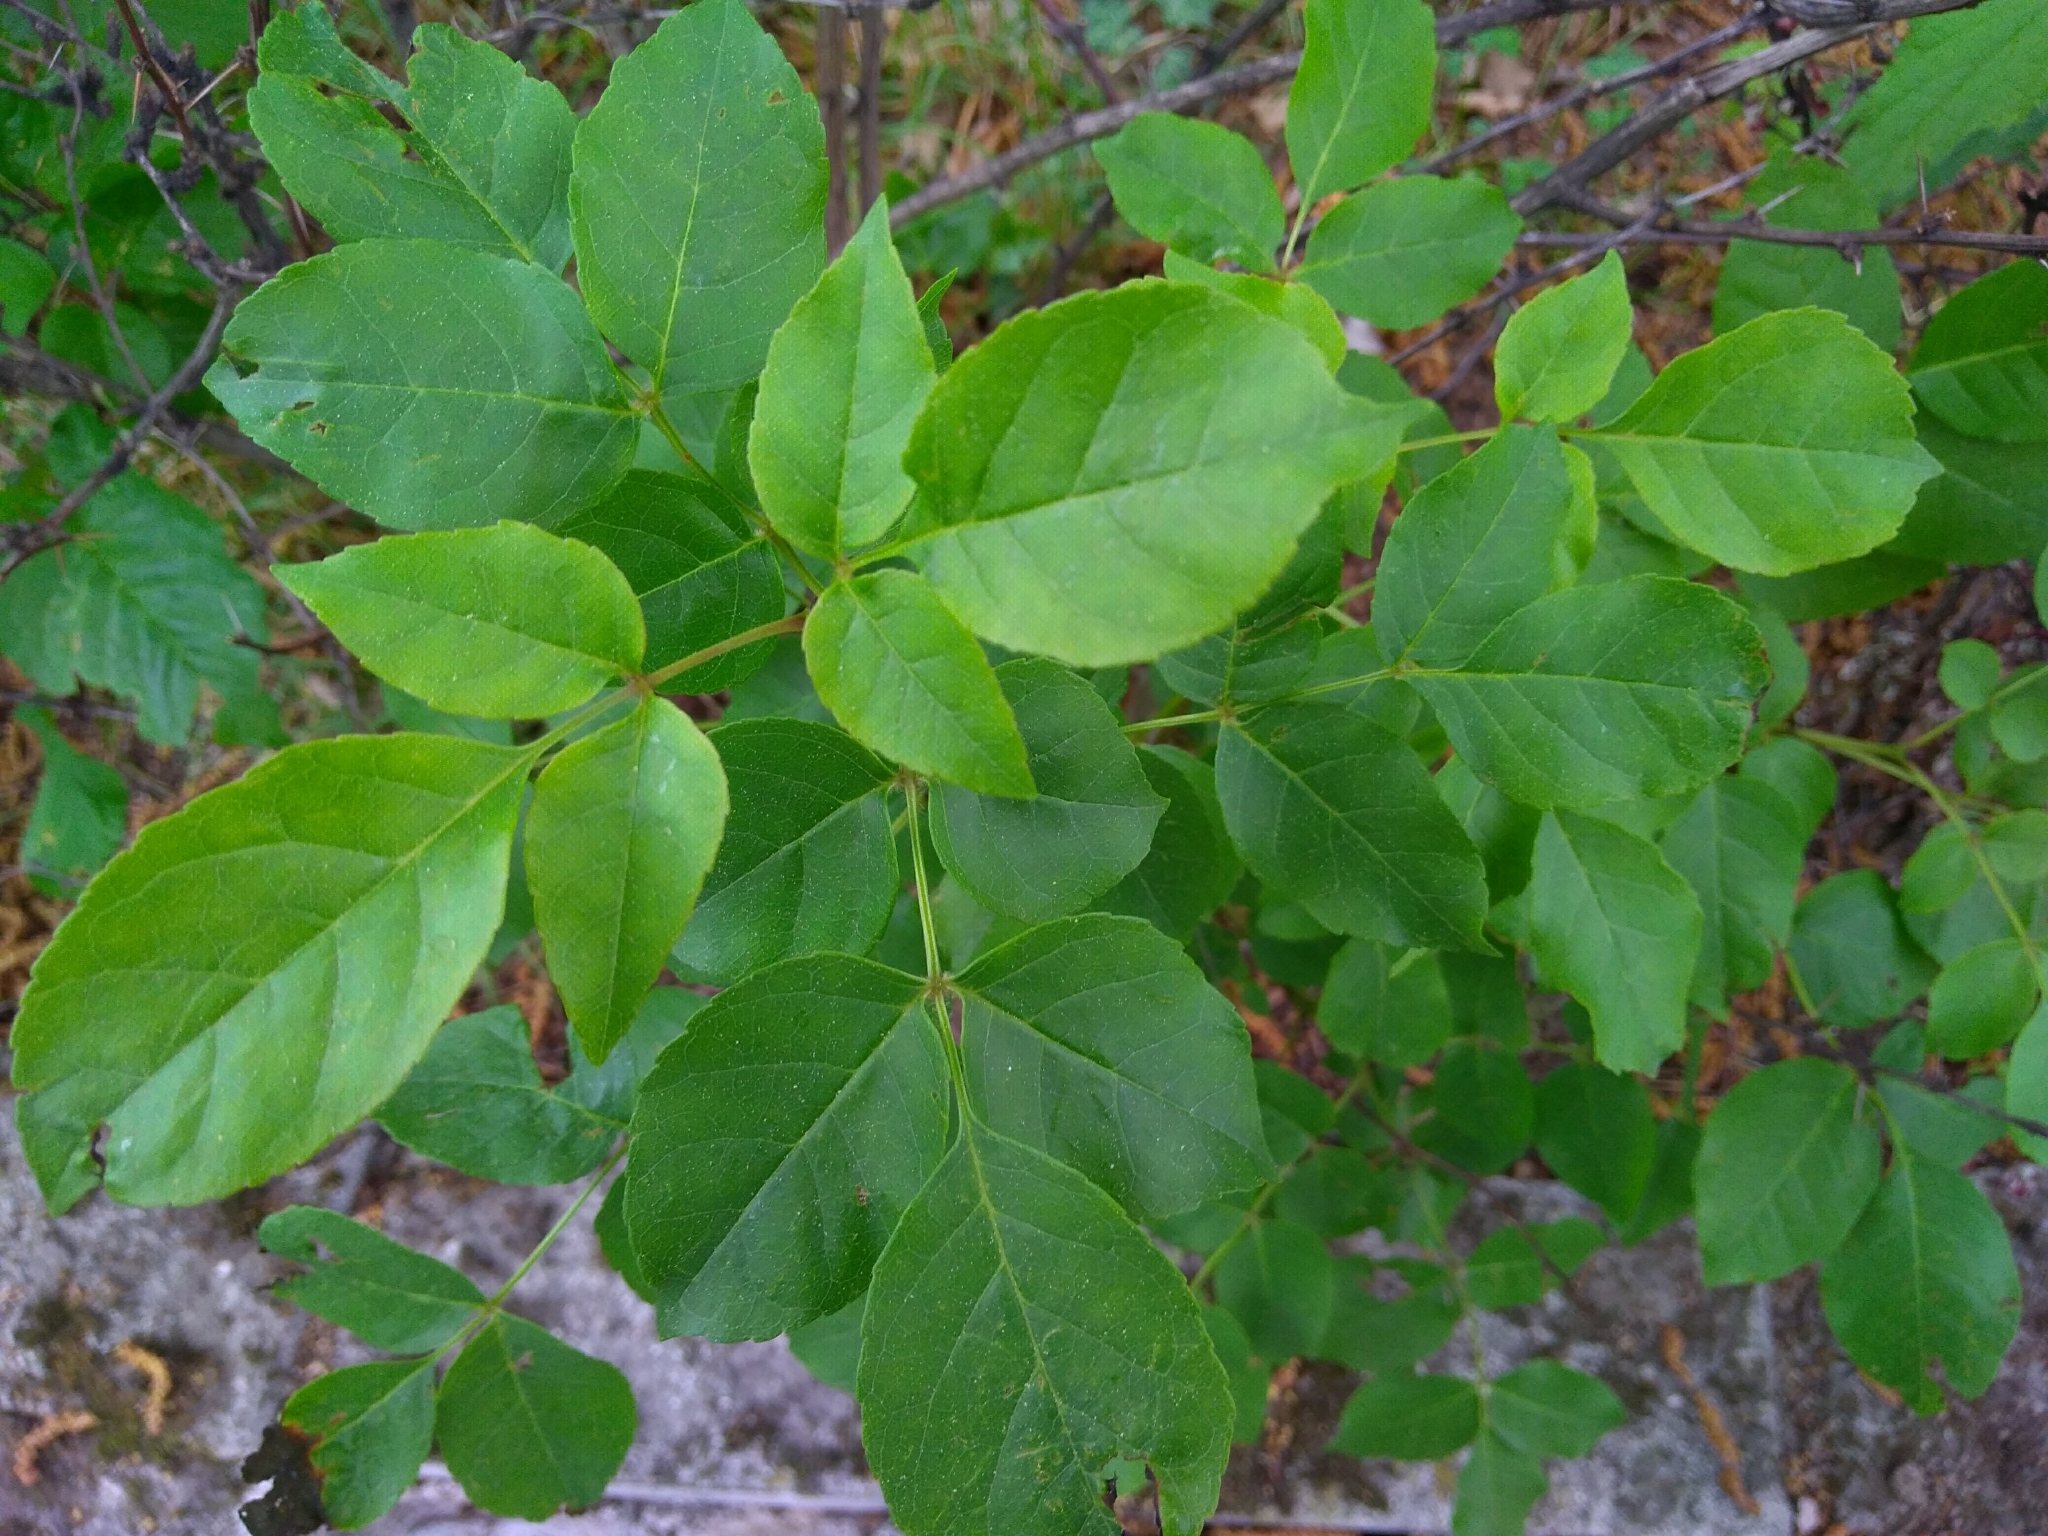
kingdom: Plantae
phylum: Tracheophyta
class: Magnoliopsida
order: Lamiales
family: Oleaceae
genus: Fraxinus
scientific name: Fraxinus ornus
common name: Manna ash
